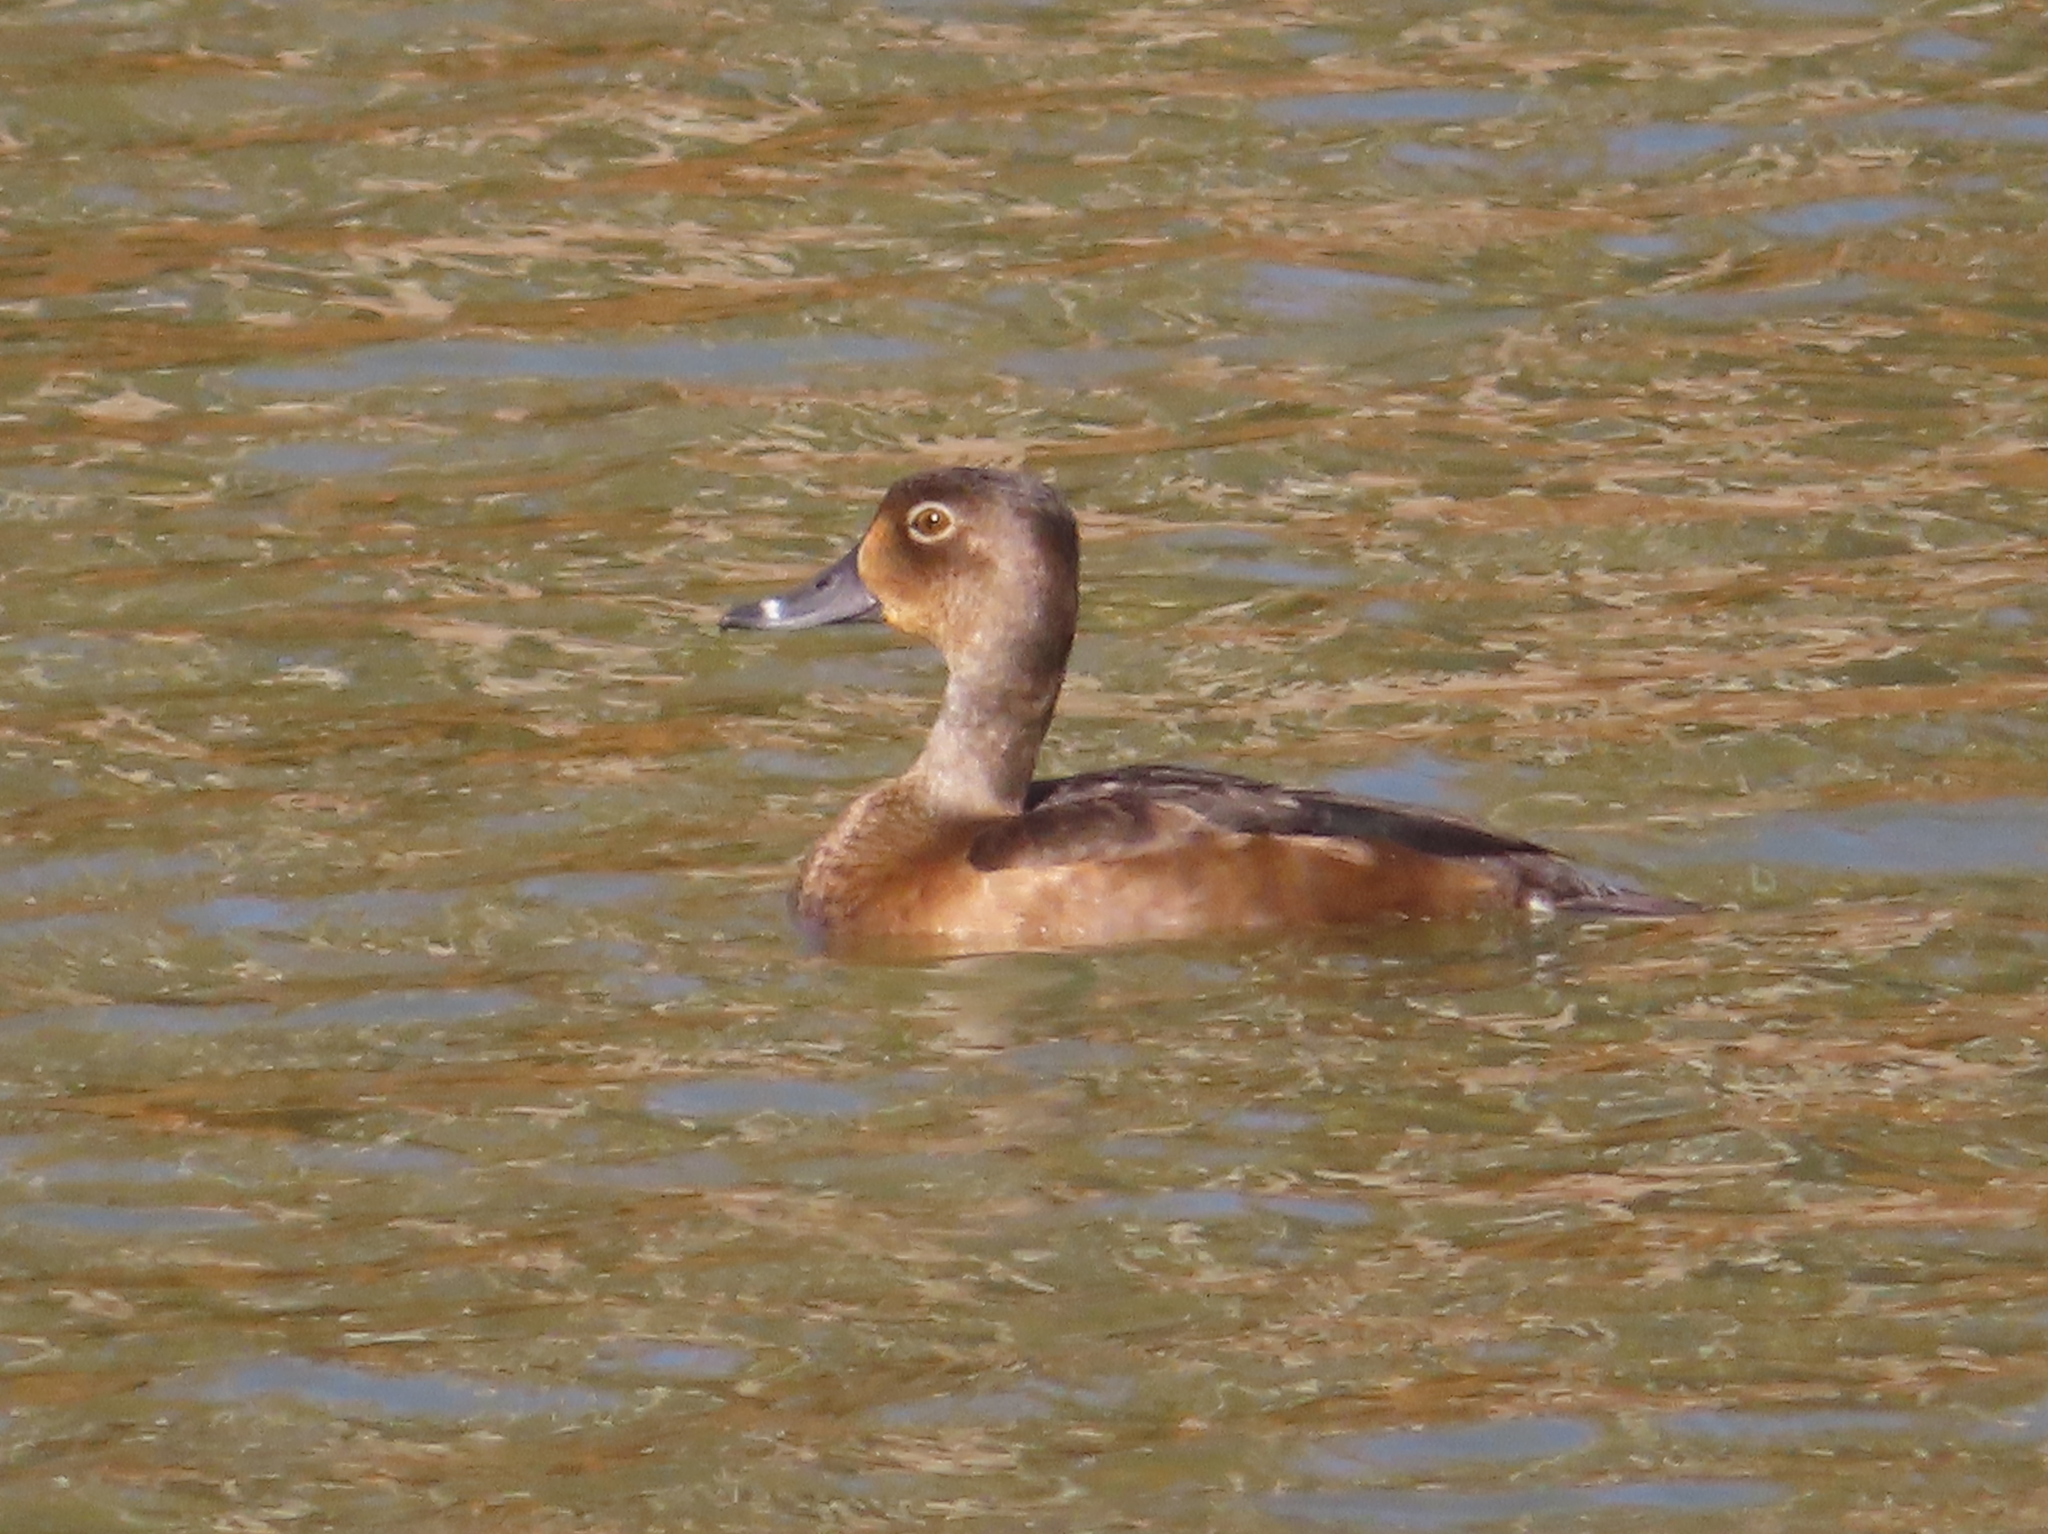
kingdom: Animalia
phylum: Chordata
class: Aves
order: Anseriformes
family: Anatidae
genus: Aythya
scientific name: Aythya collaris
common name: Ring-necked duck
